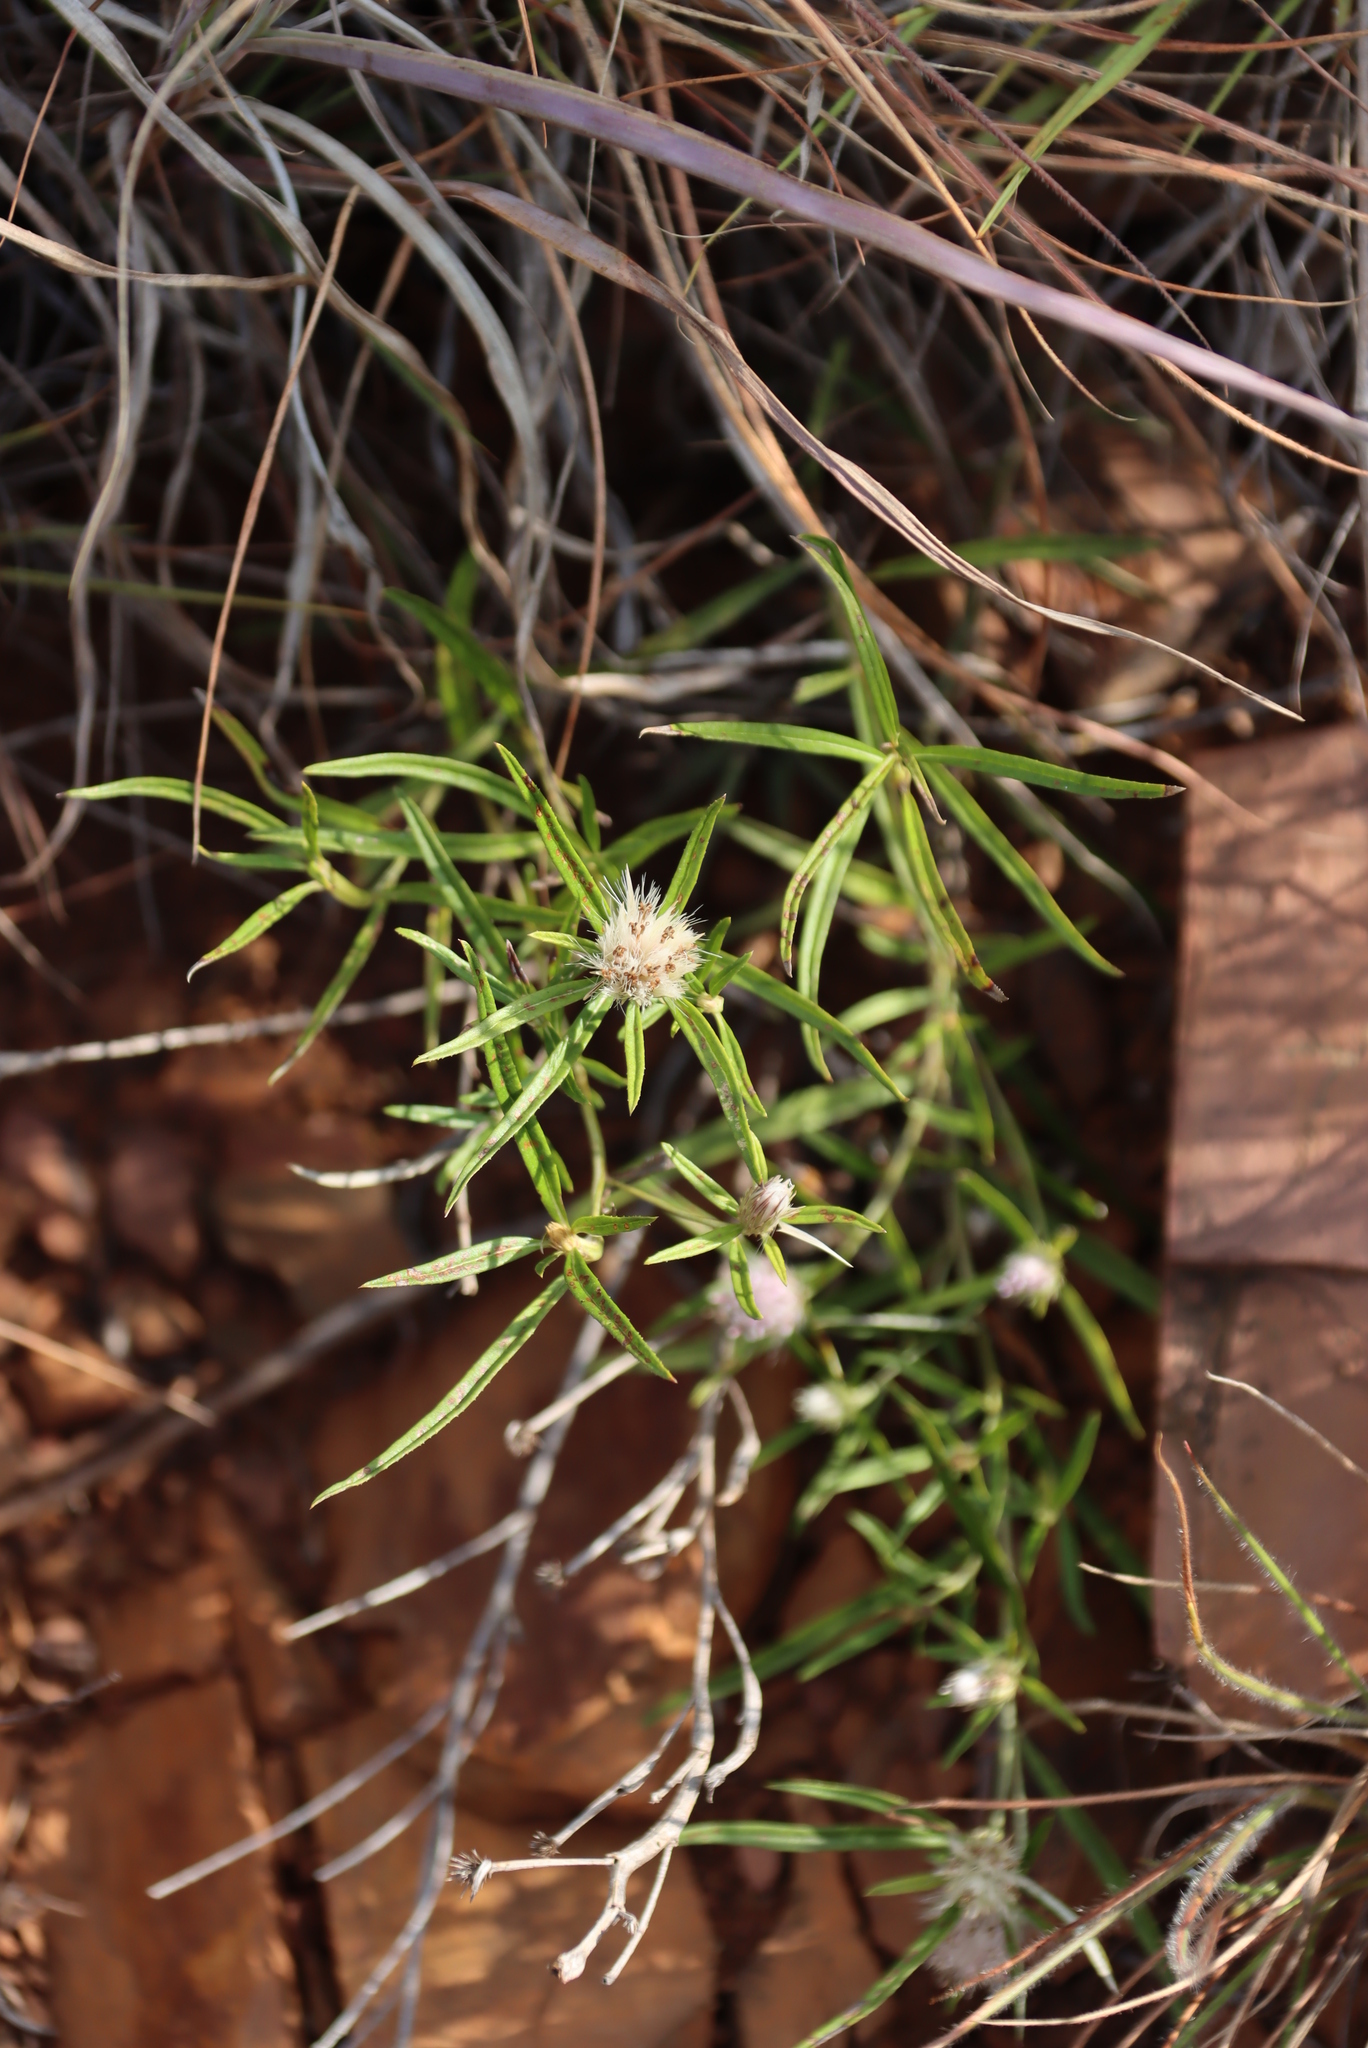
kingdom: Plantae
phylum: Tracheophyta
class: Magnoliopsida
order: Asterales
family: Asteraceae
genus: Dicoma
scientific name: Dicoma anomala
